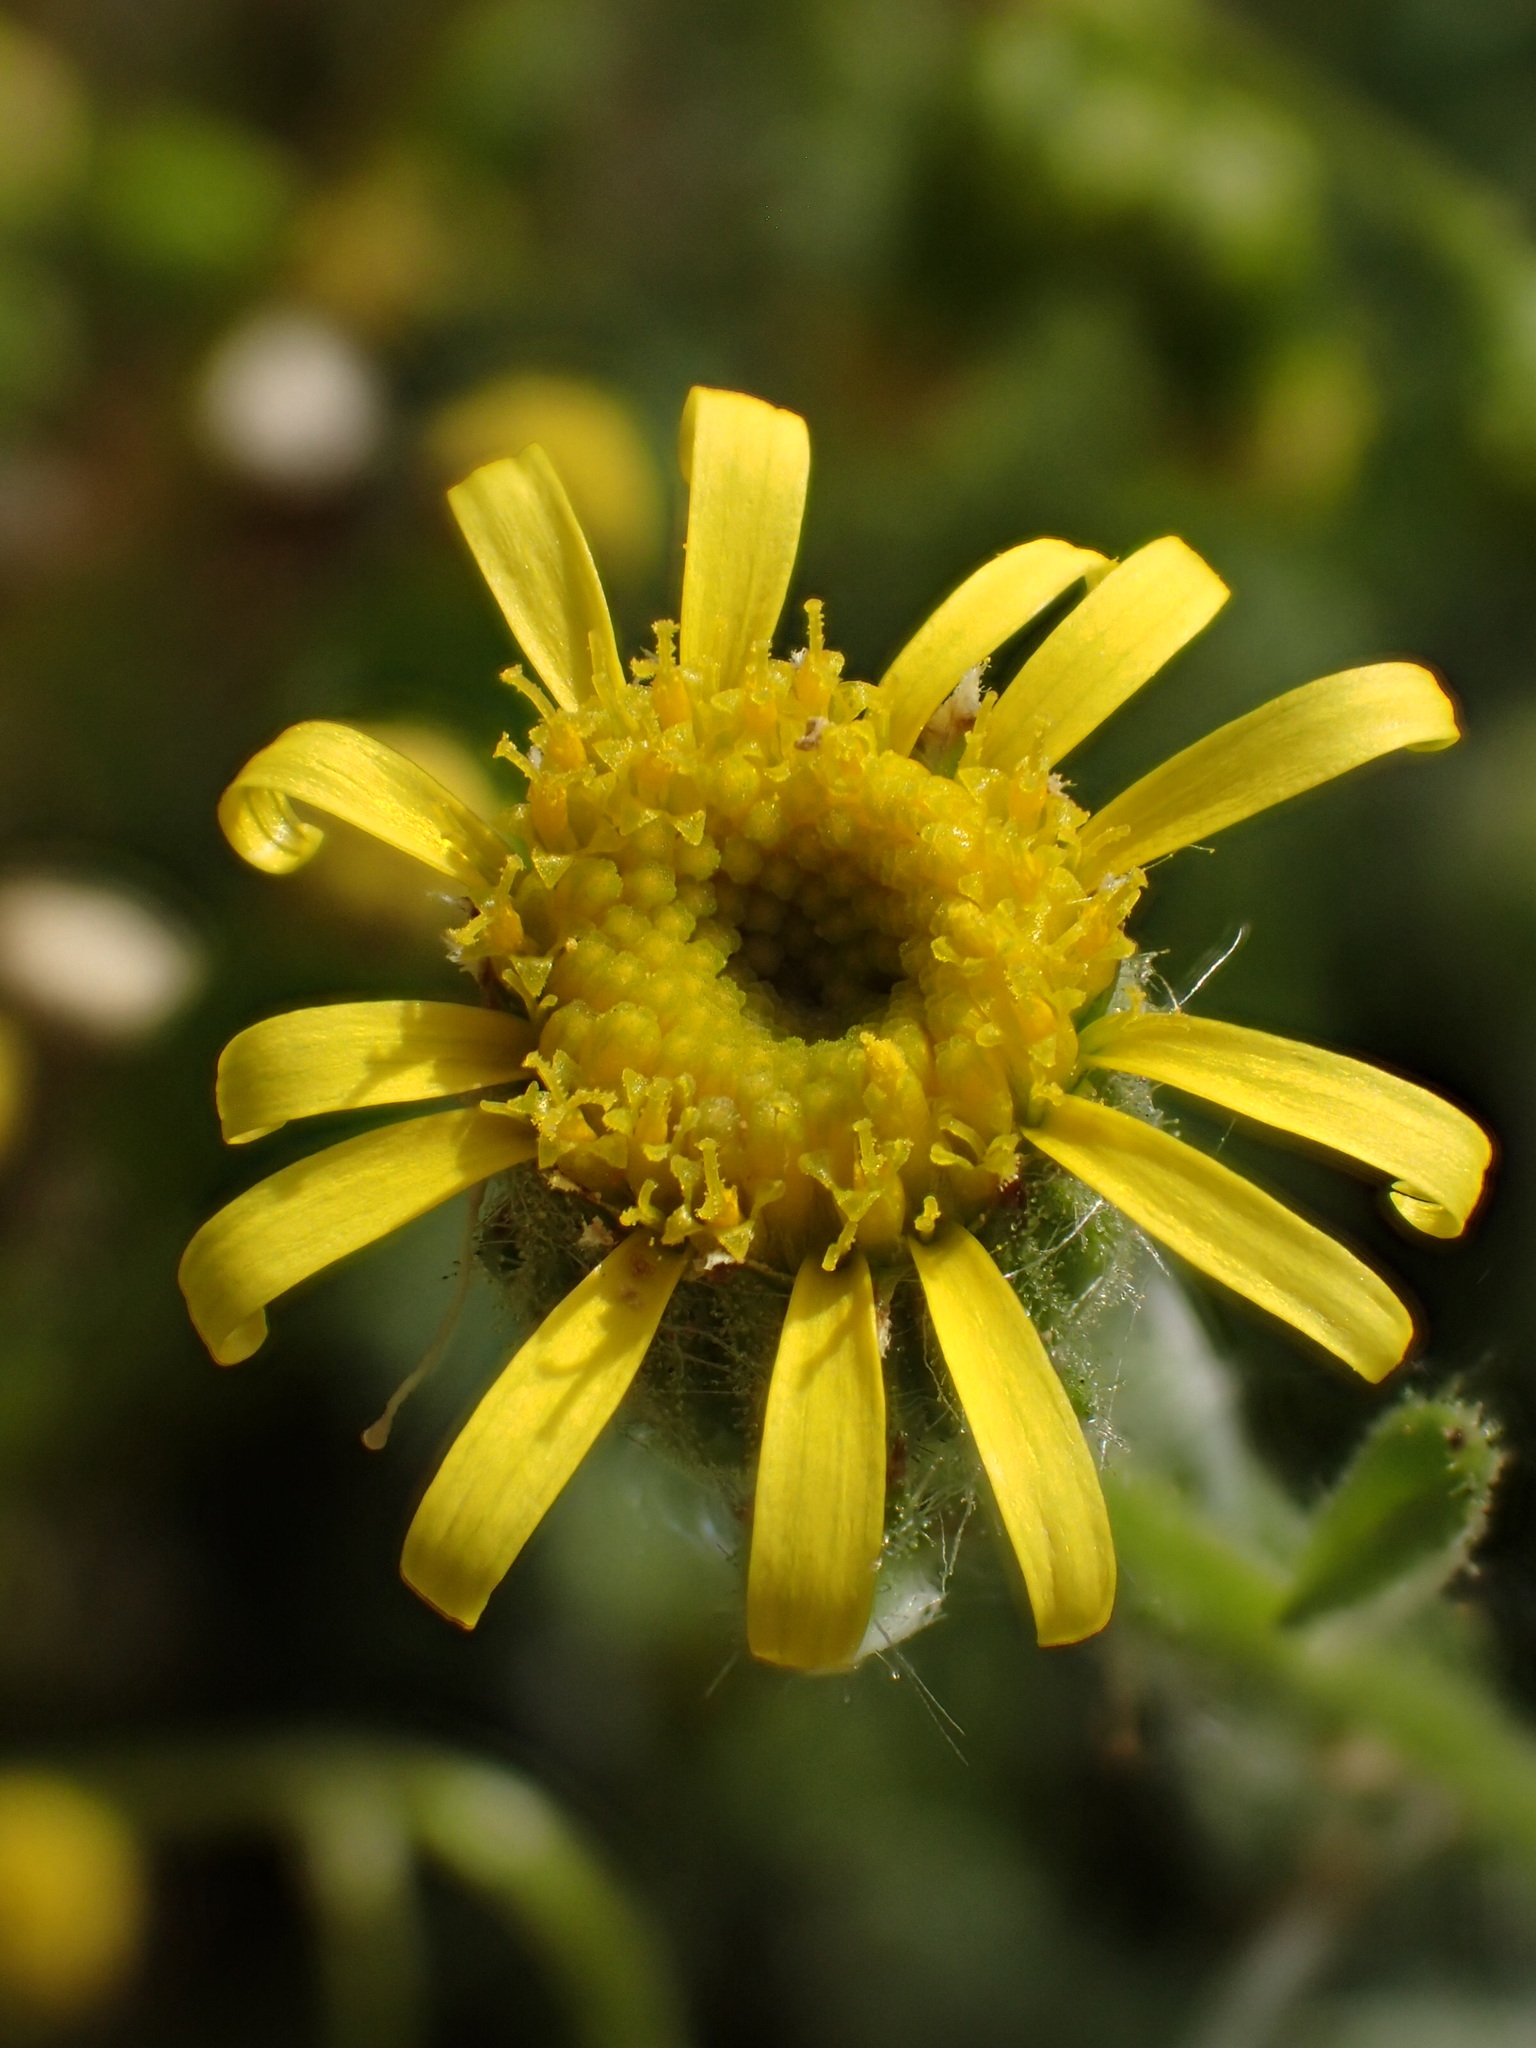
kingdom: Plantae
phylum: Tracheophyta
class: Magnoliopsida
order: Asterales
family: Asteraceae
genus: Senecio
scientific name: Senecio viscosus
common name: Sticky groundsel
